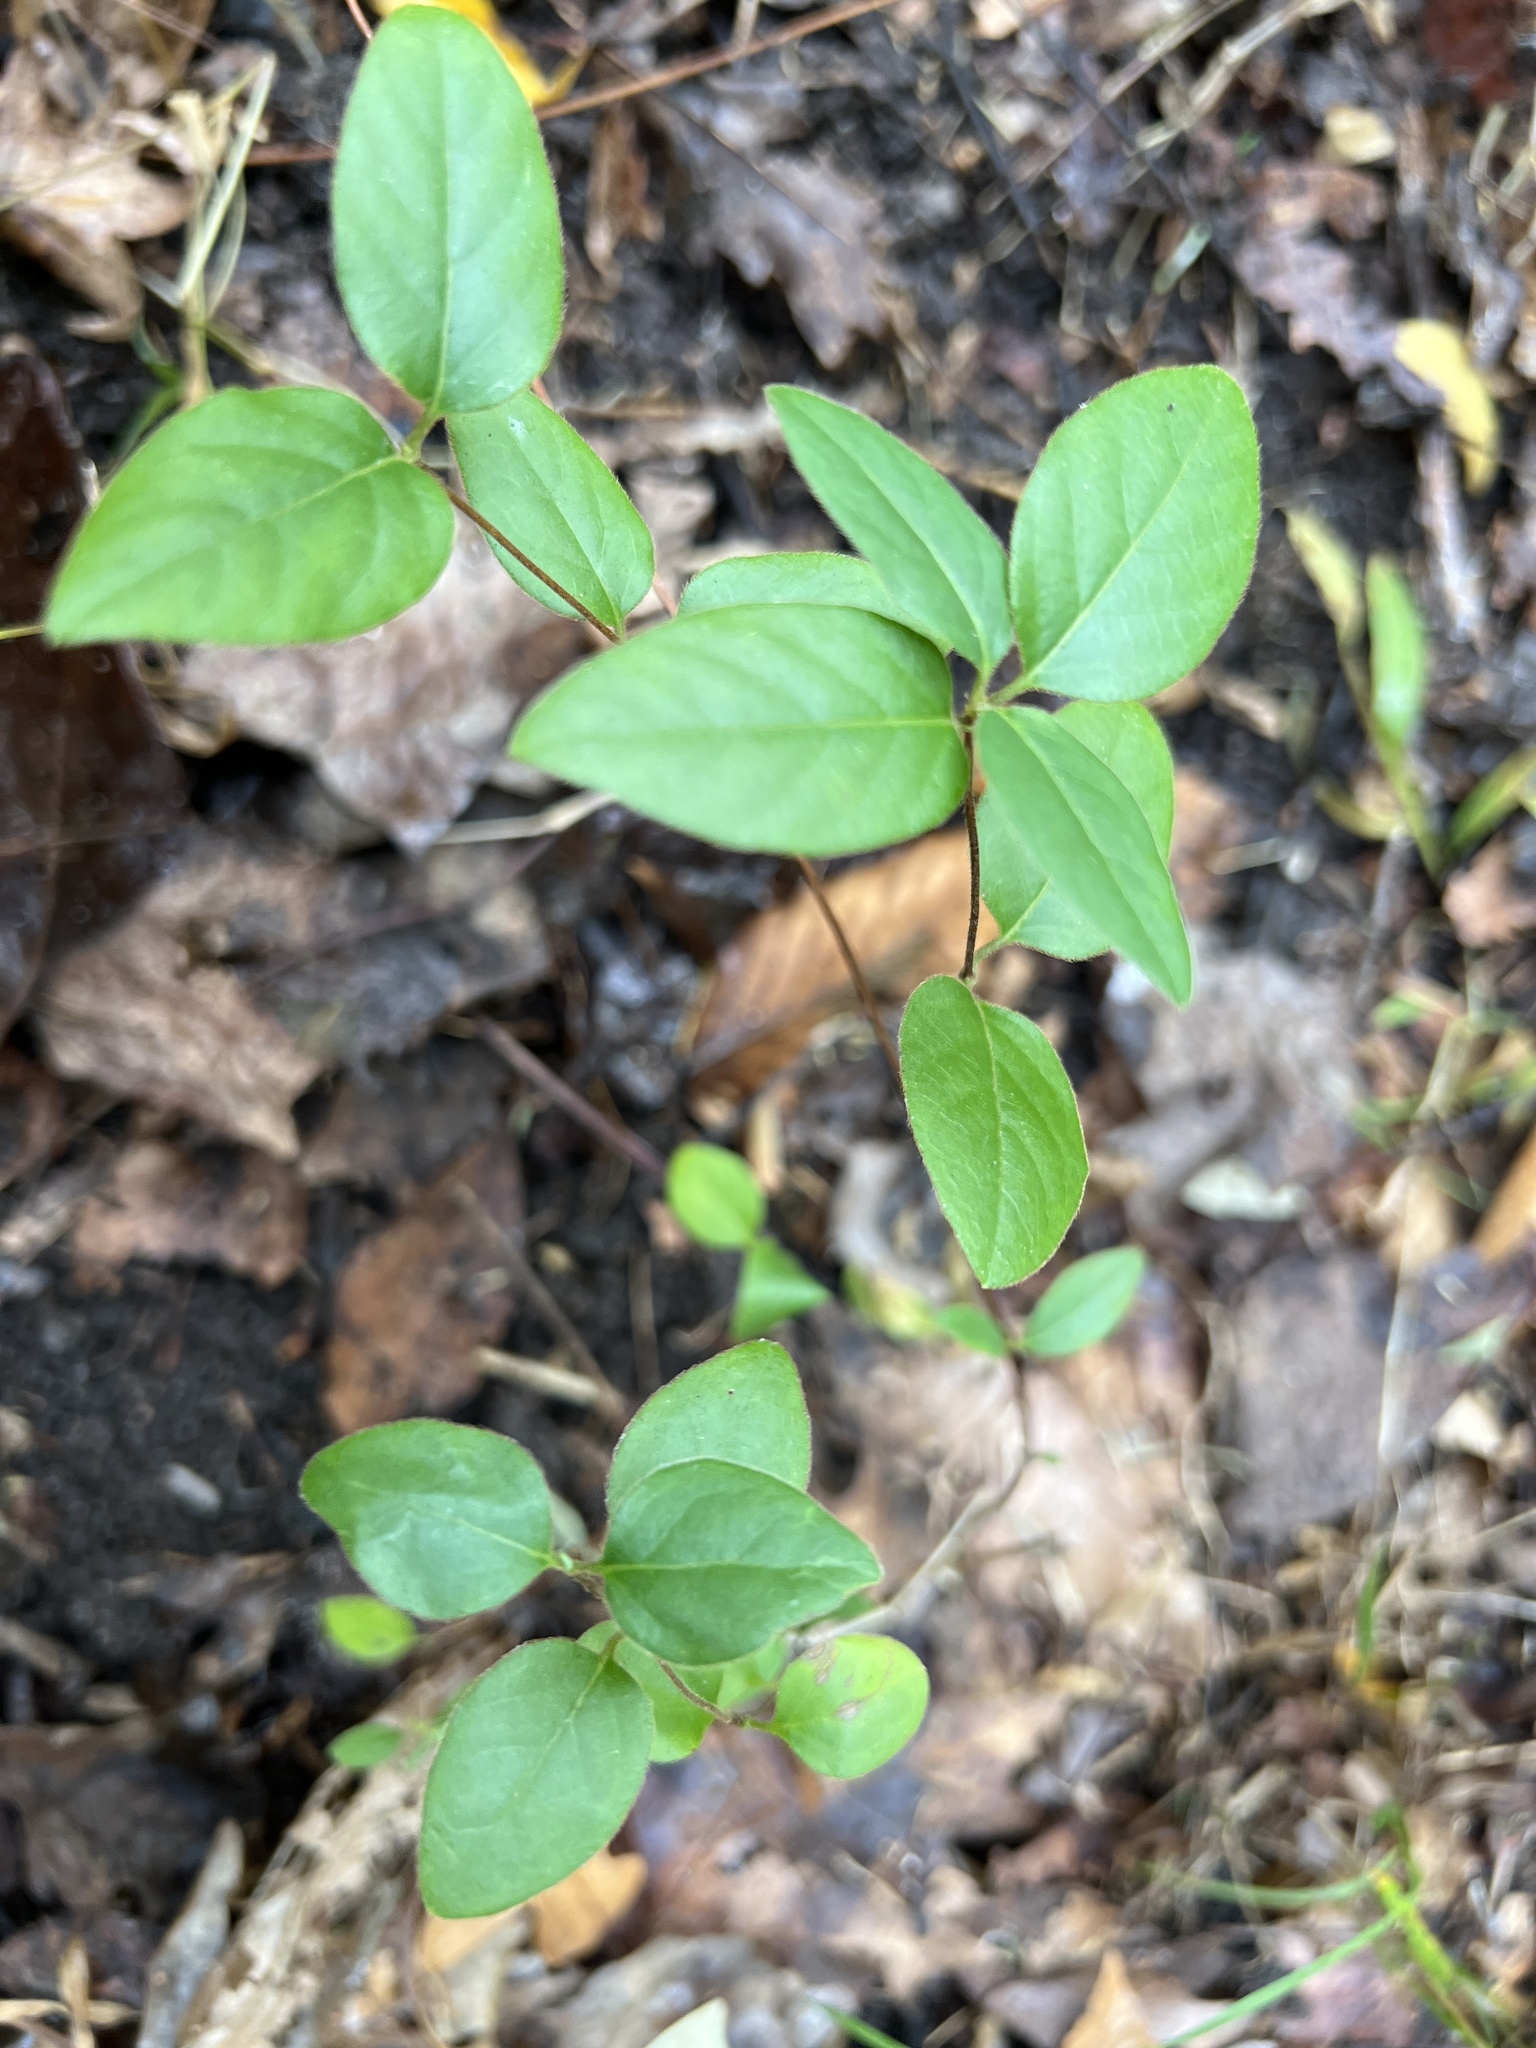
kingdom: Plantae
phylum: Tracheophyta
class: Magnoliopsida
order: Dipsacales
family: Caprifoliaceae
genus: Lonicera
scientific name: Lonicera japonica
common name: Japanese honeysuckle
